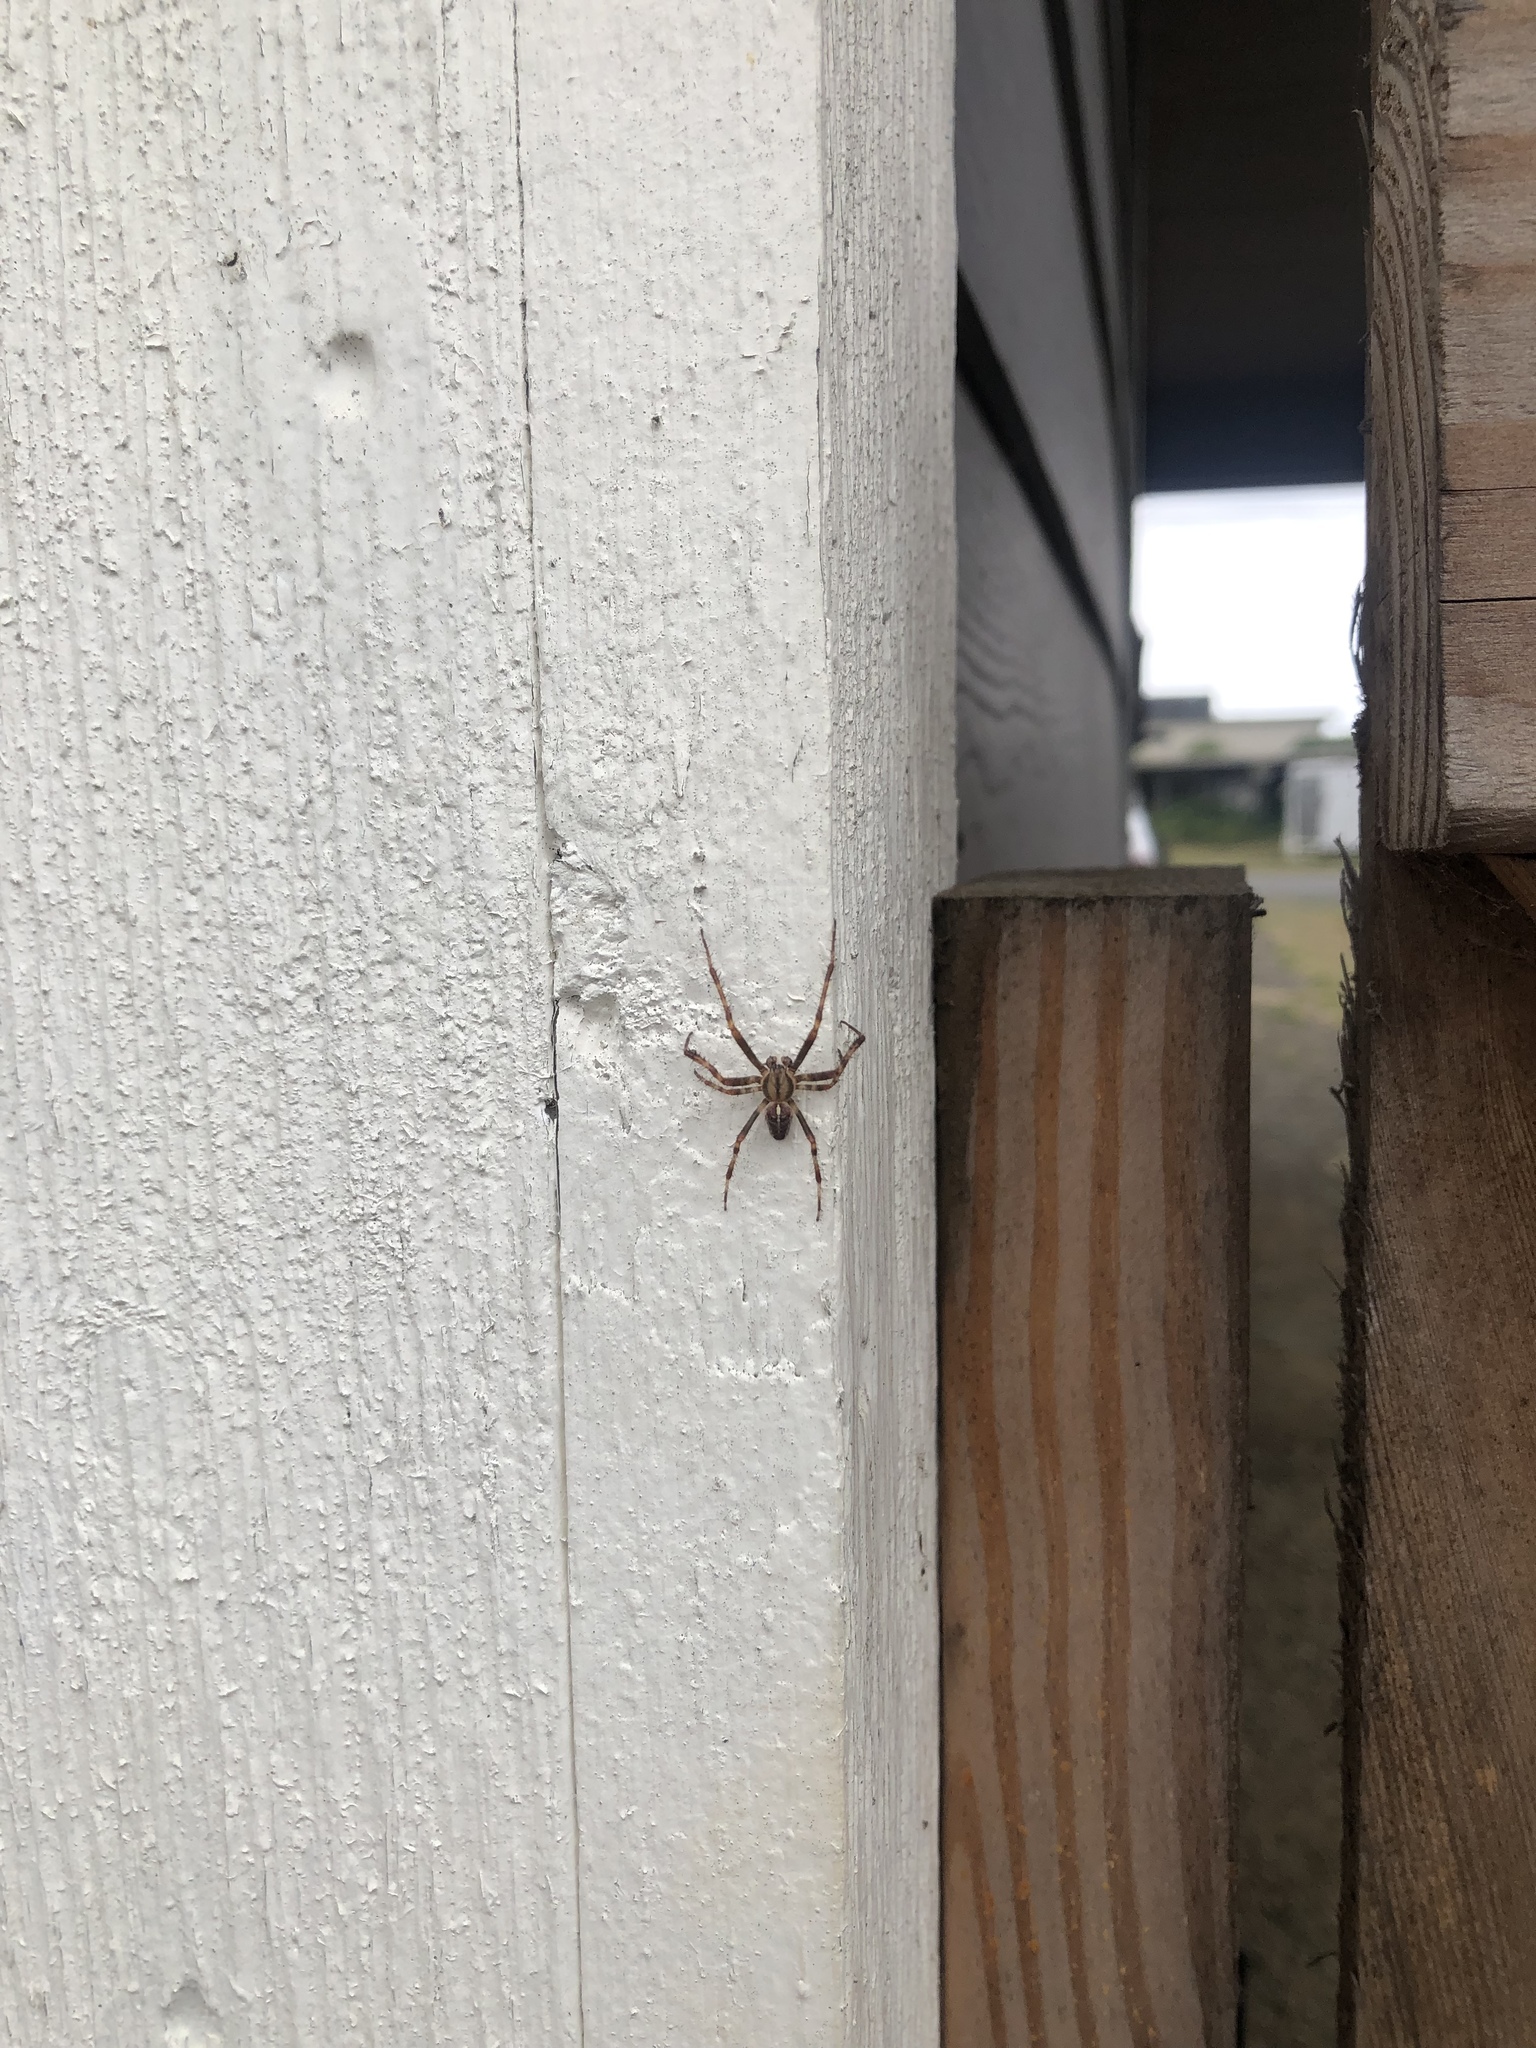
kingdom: Animalia
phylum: Arthropoda
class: Arachnida
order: Araneae
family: Araneidae
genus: Araneus
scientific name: Araneus diadematus
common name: Cross orbweaver
